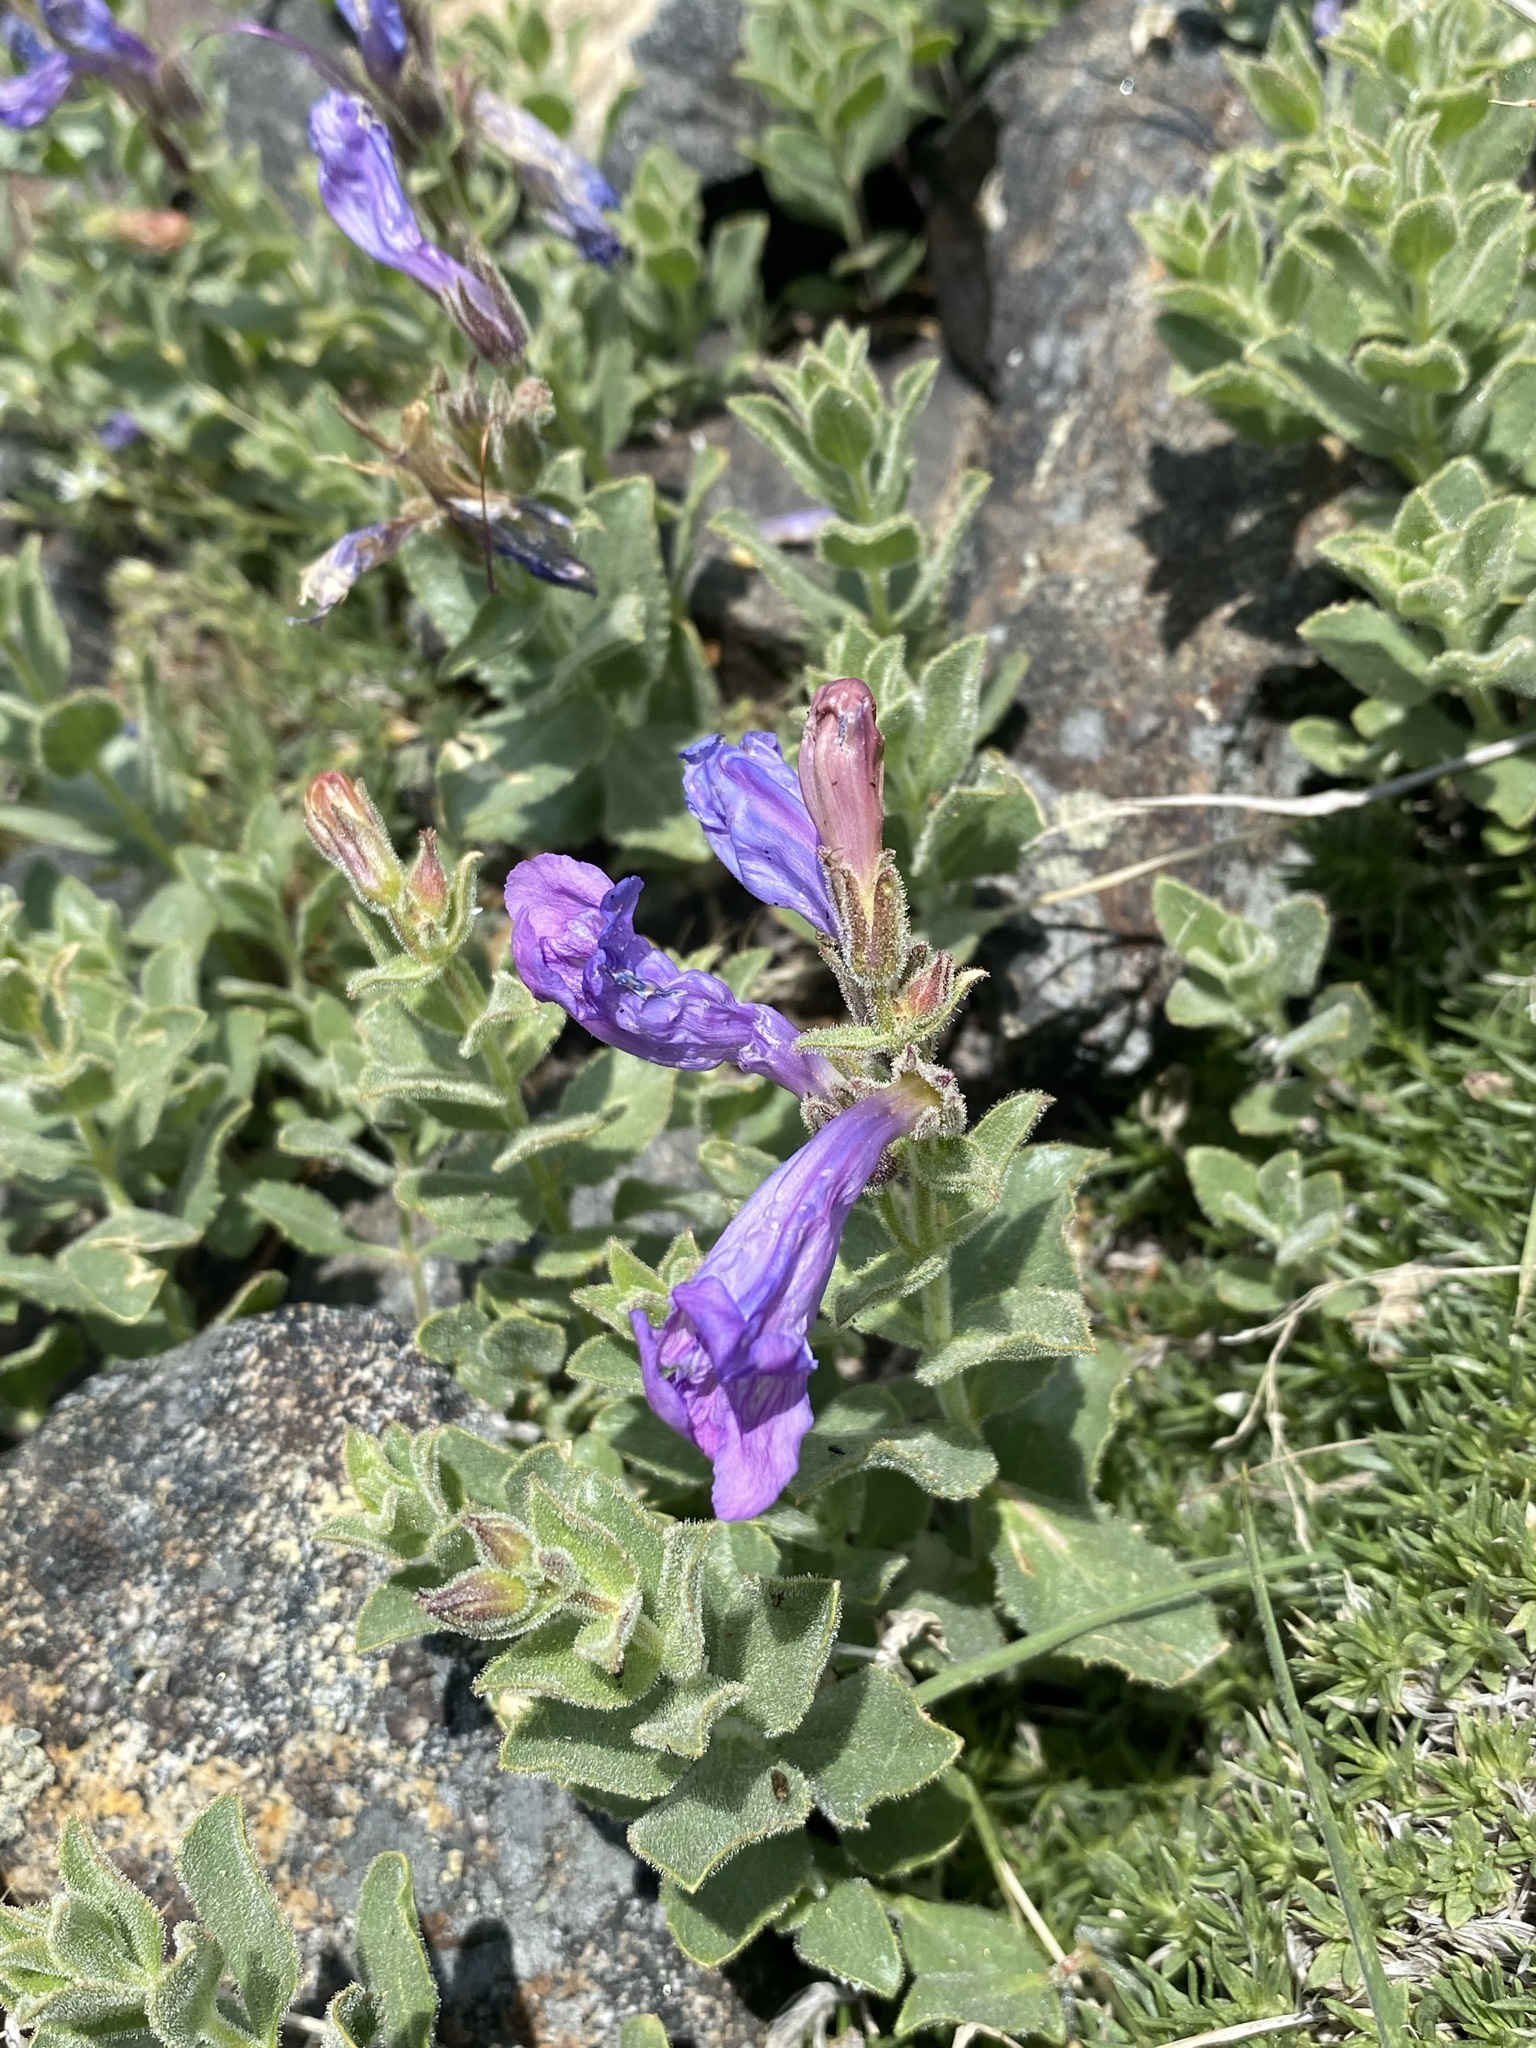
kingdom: Plantae
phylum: Tracheophyta
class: Magnoliopsida
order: Lamiales
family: Plantaginaceae
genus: Penstemon
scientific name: Penstemon montanus
